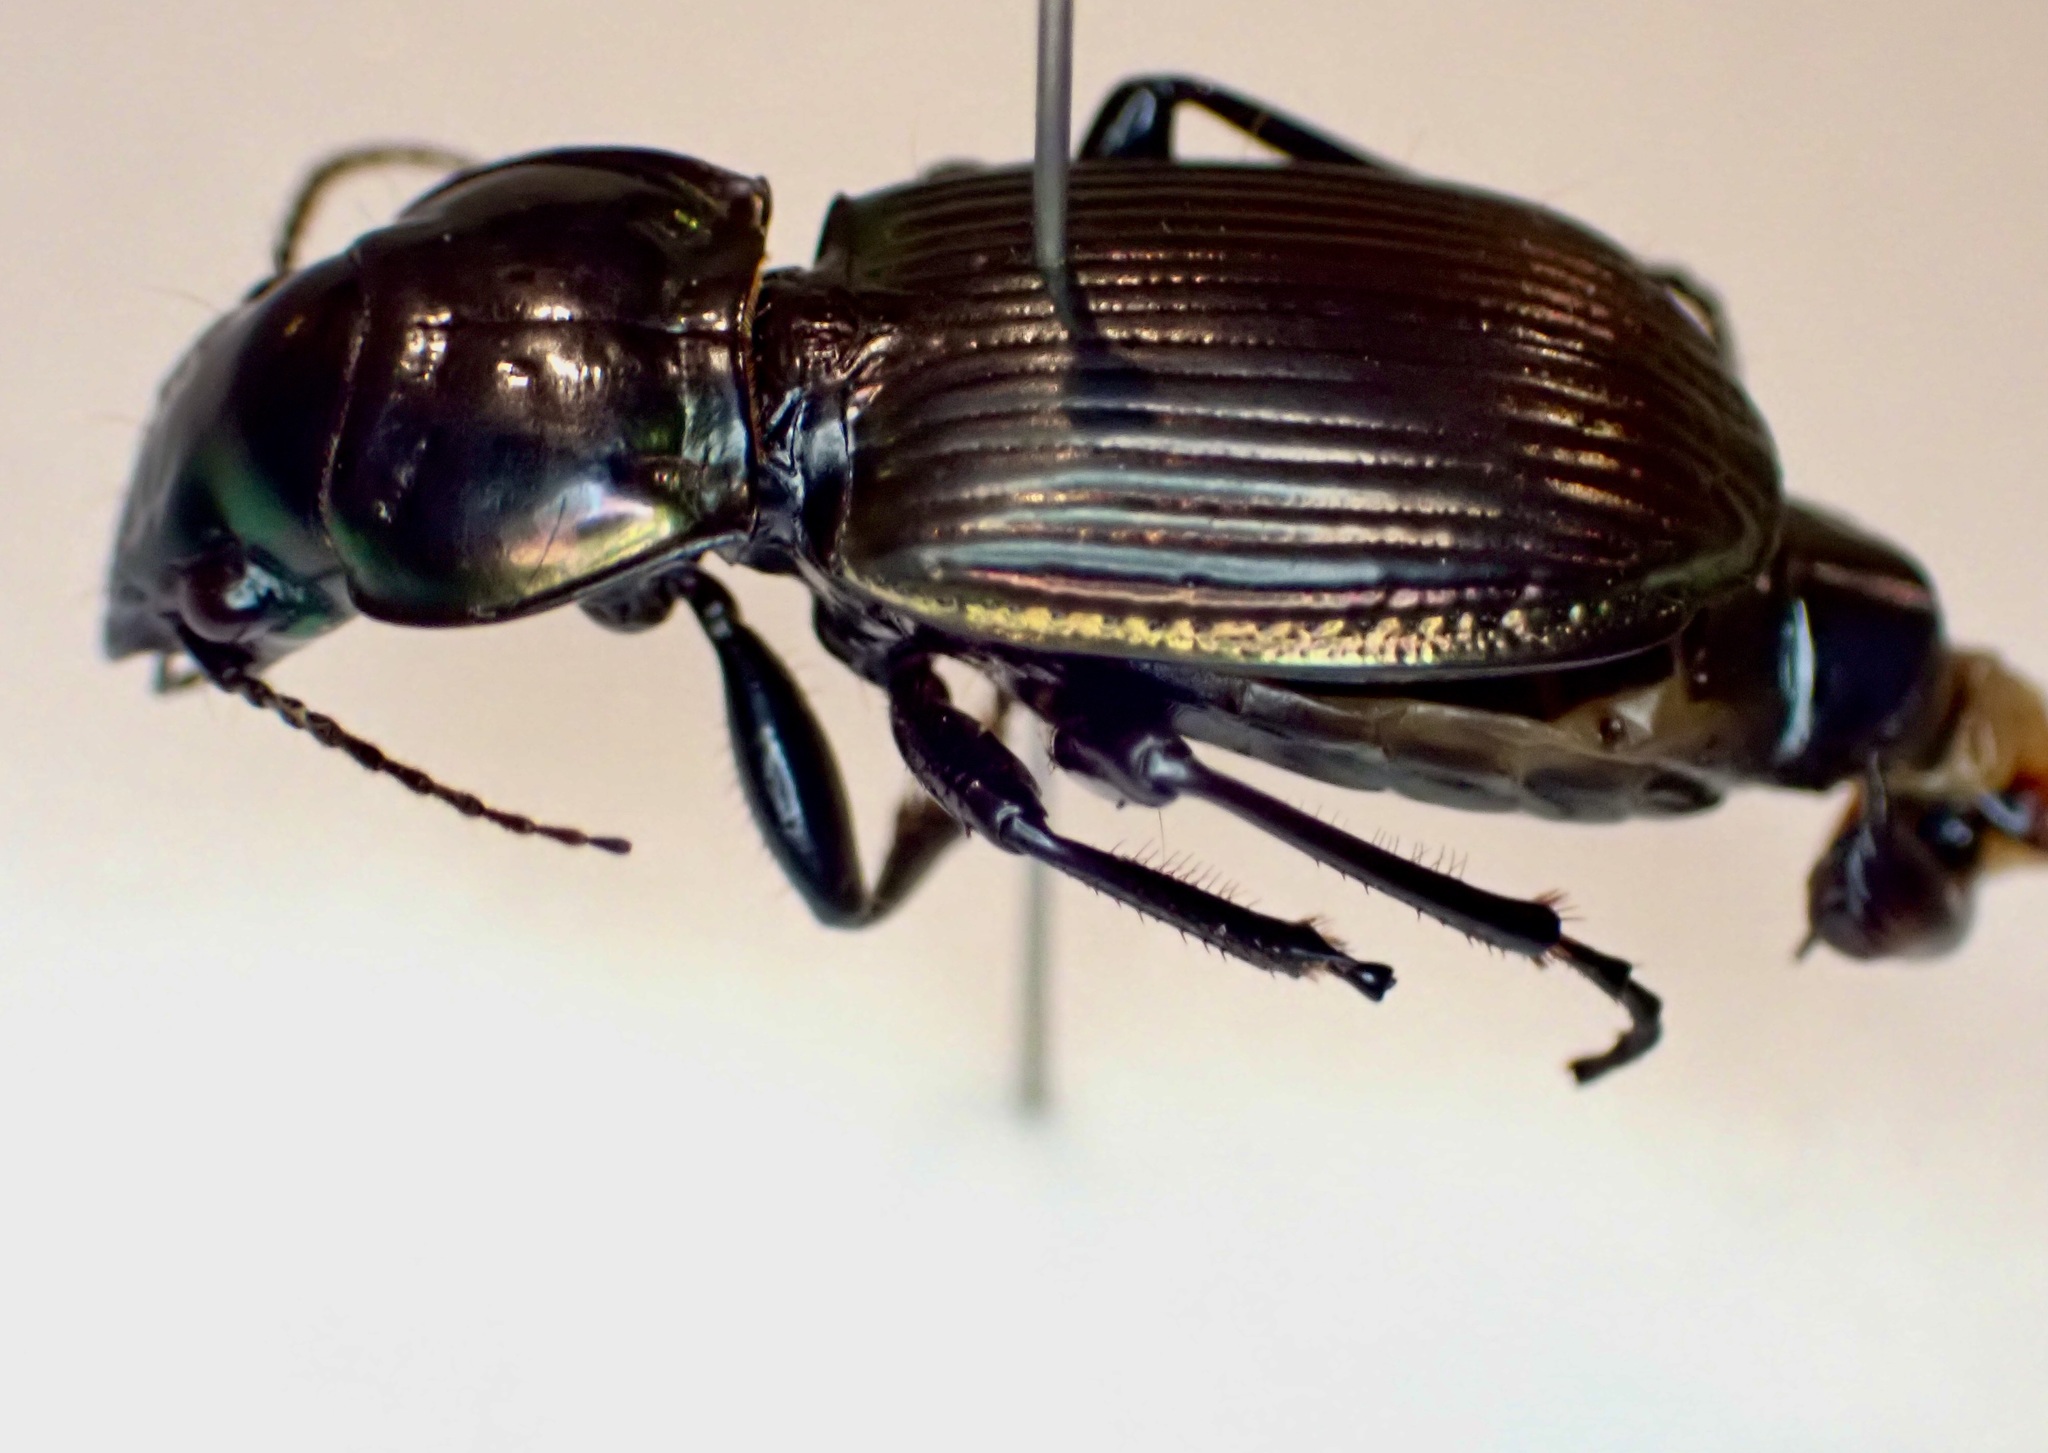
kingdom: Animalia
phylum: Arthropoda
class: Insecta
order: Coleoptera
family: Carabidae
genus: Megadromus
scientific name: Megadromus antarcticus
